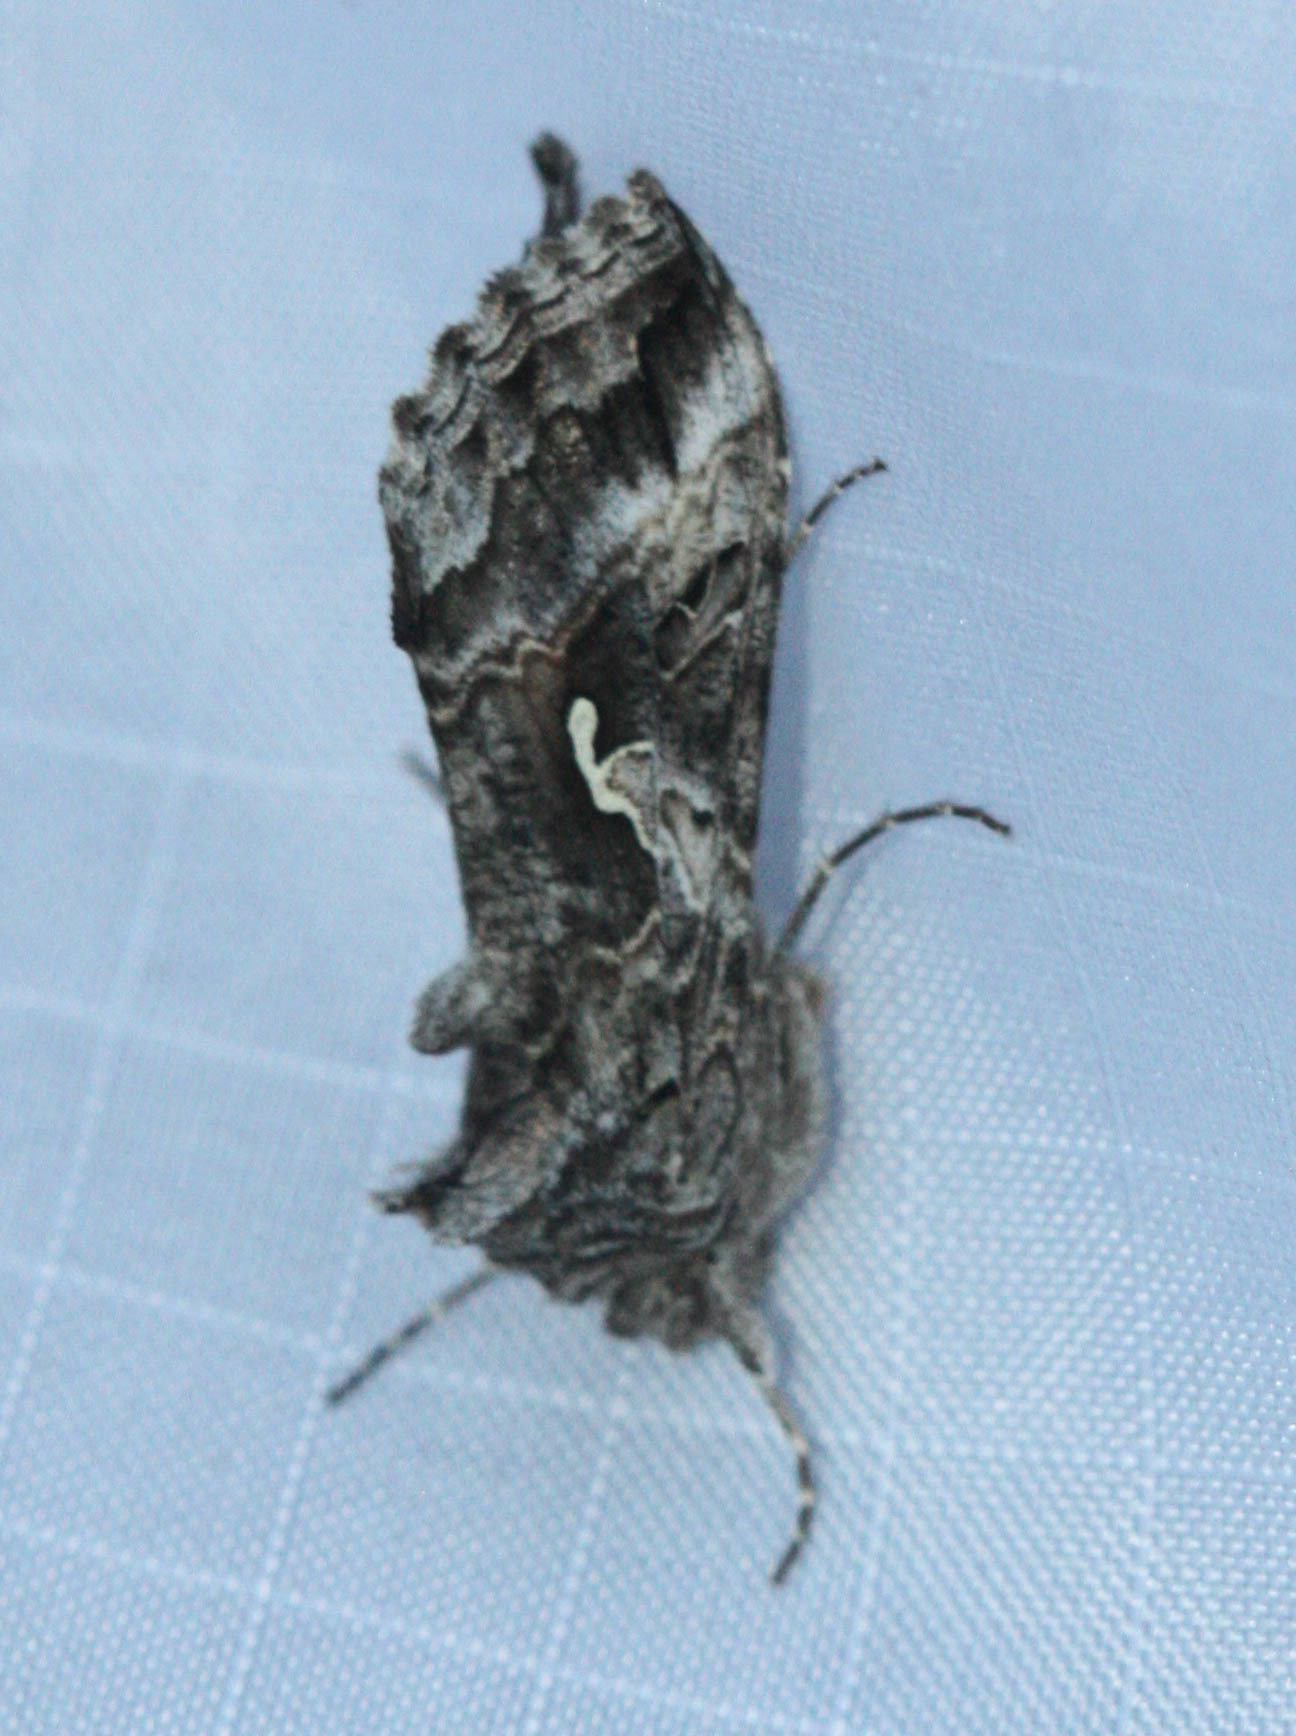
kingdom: Animalia
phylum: Arthropoda
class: Insecta
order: Lepidoptera
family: Noctuidae
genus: Autographa
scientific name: Autographa californica
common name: Alfalfa looper
